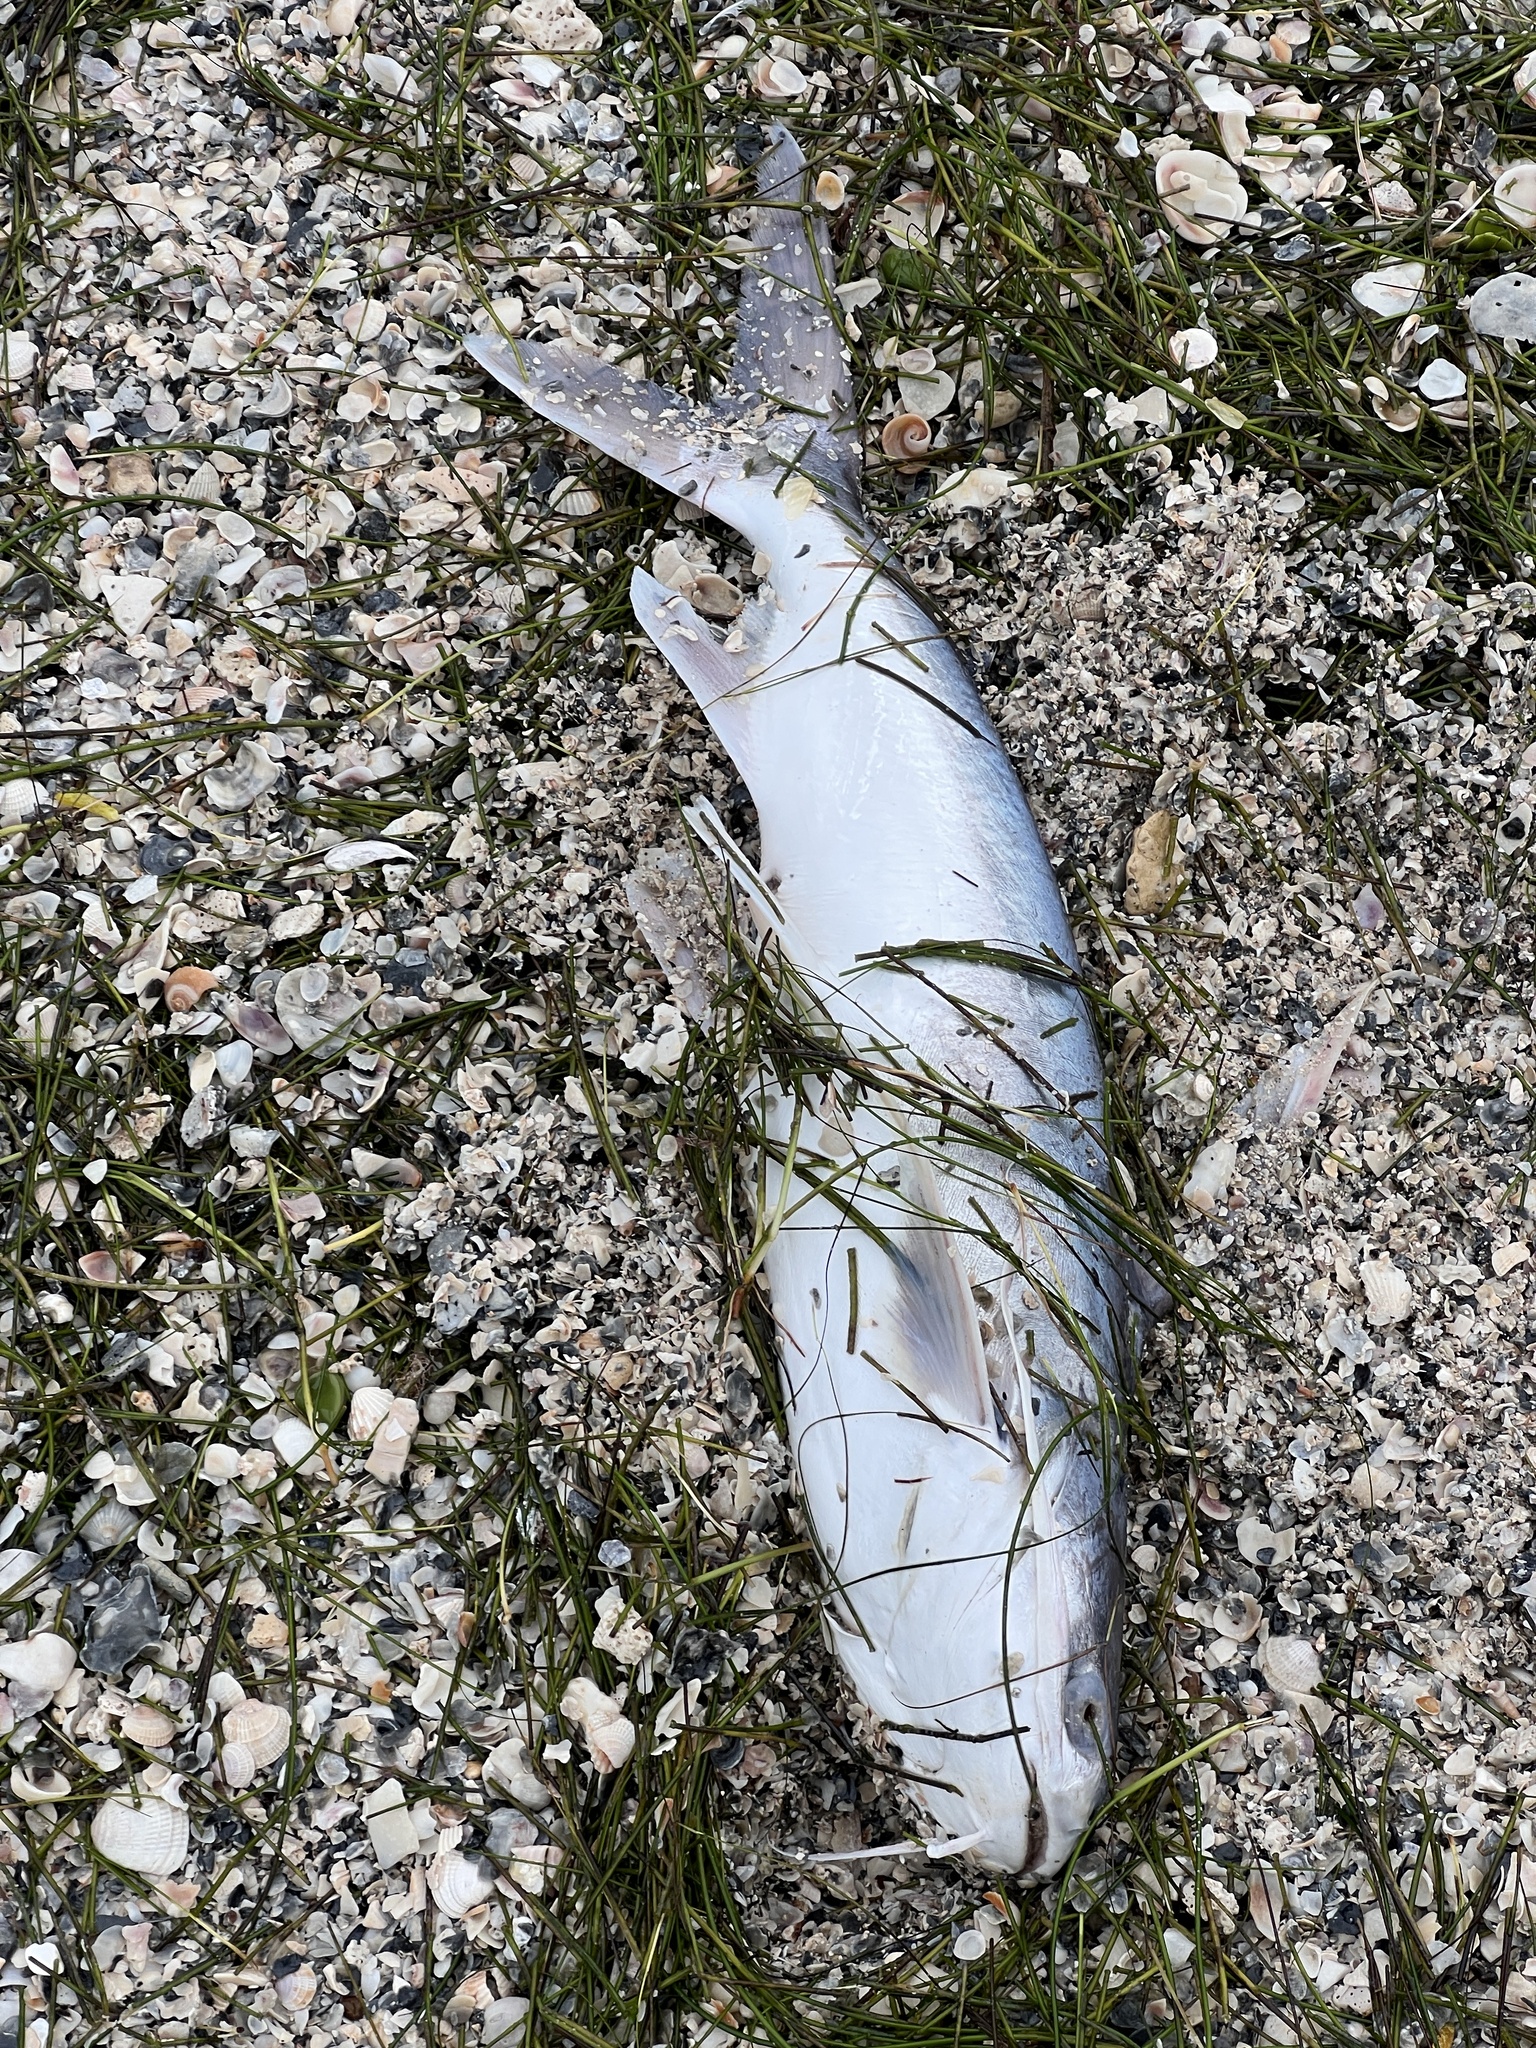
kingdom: Animalia
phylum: Chordata
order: Siluriformes
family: Ariidae
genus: Bagre
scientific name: Bagre marinus
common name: Gafftopsail sea catfish
